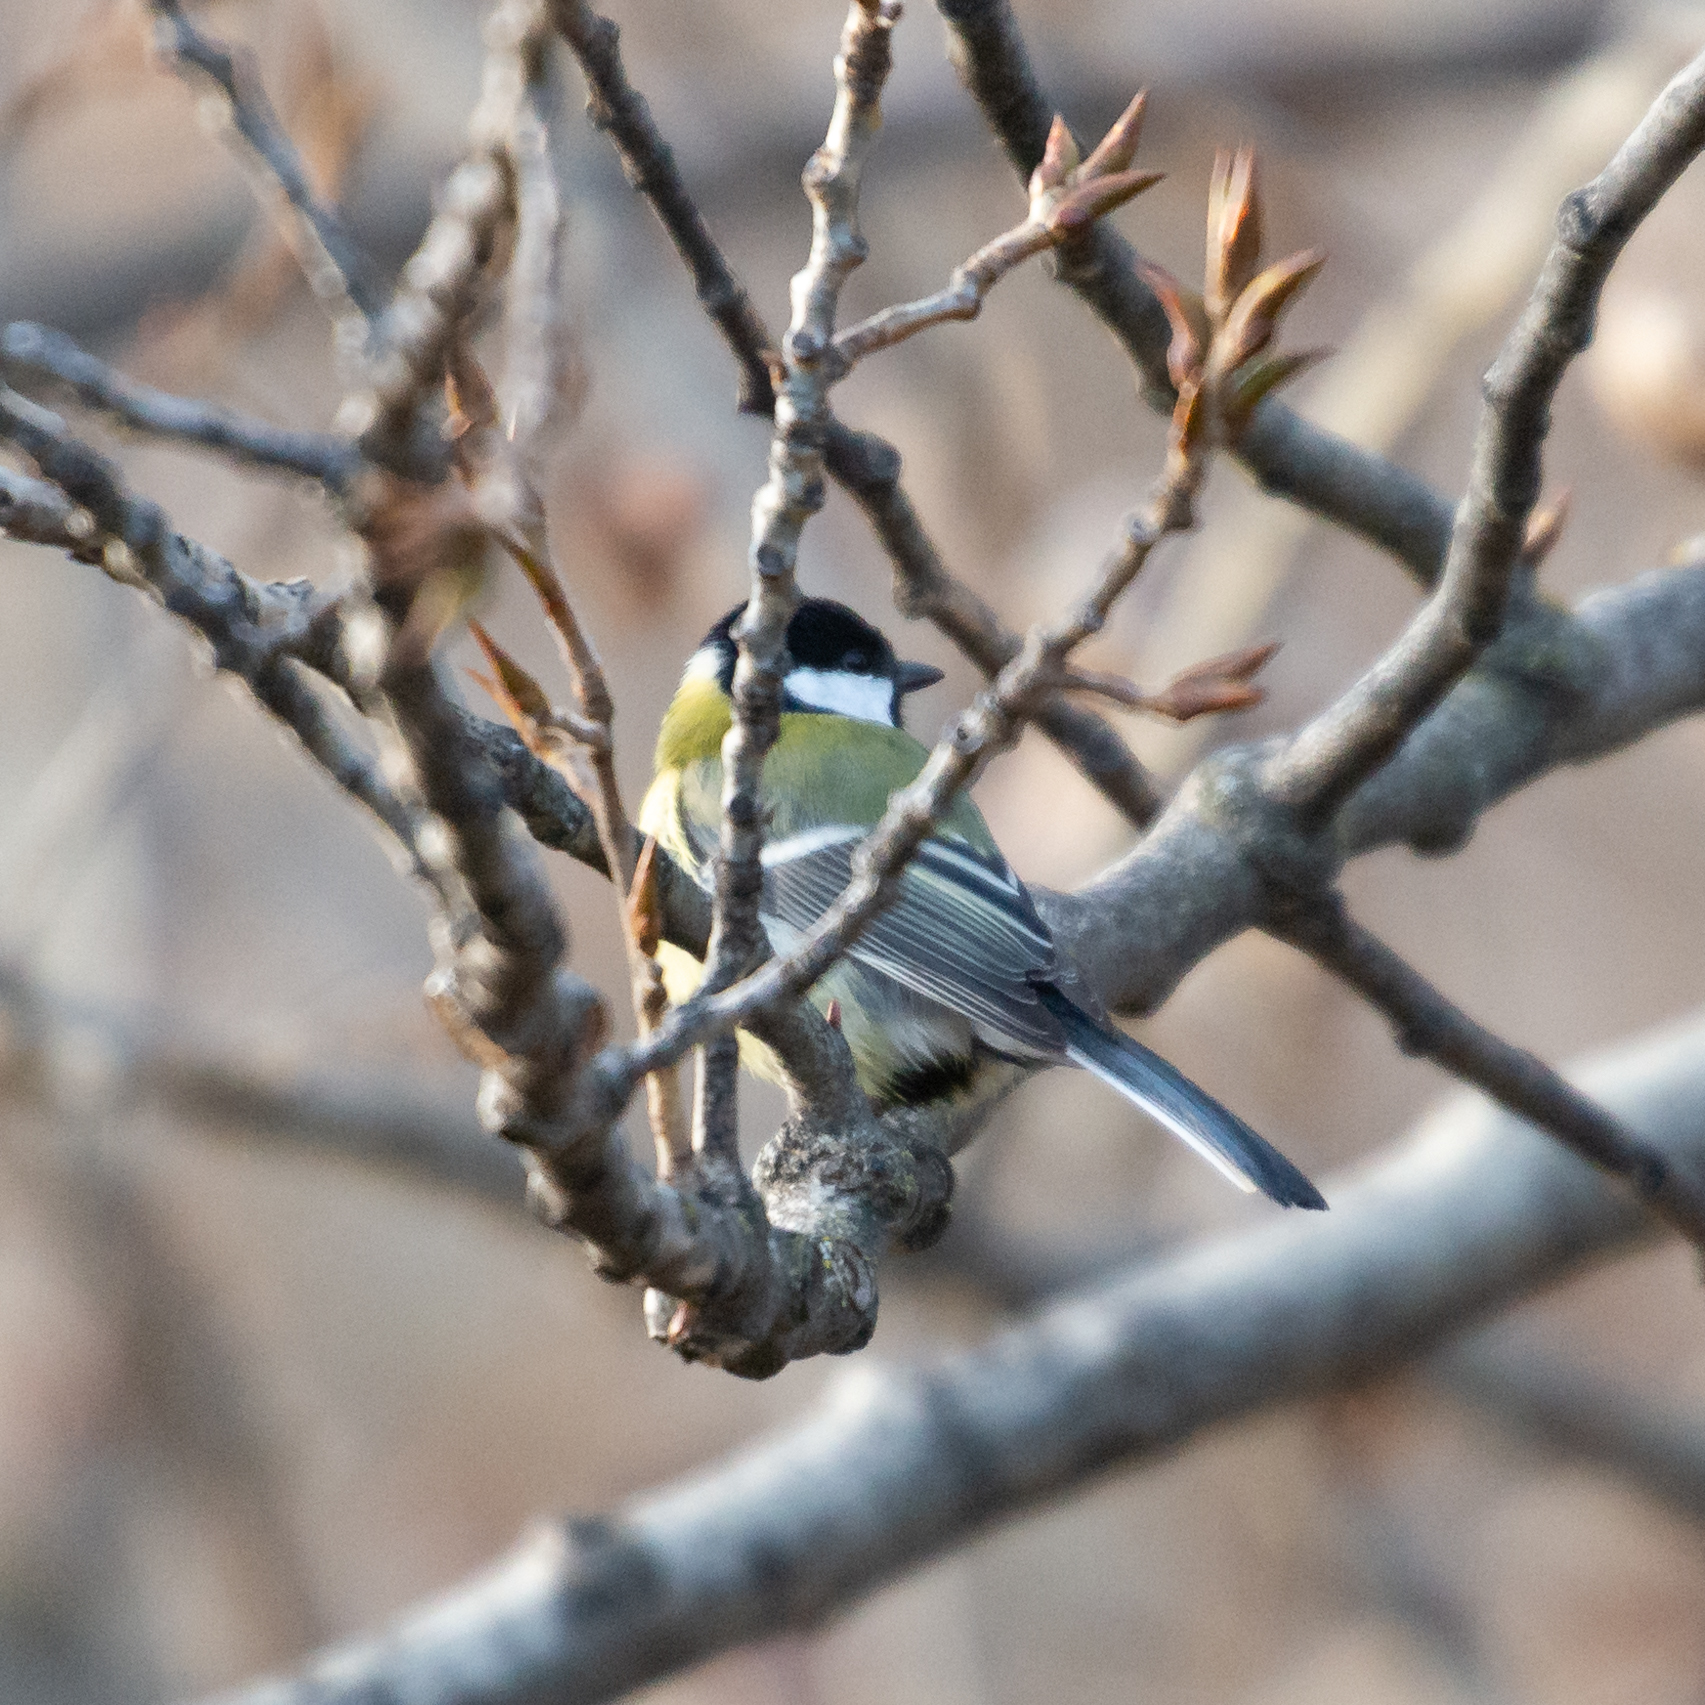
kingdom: Animalia
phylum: Chordata
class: Aves
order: Passeriformes
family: Paridae
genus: Parus
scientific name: Parus major
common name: Great tit
